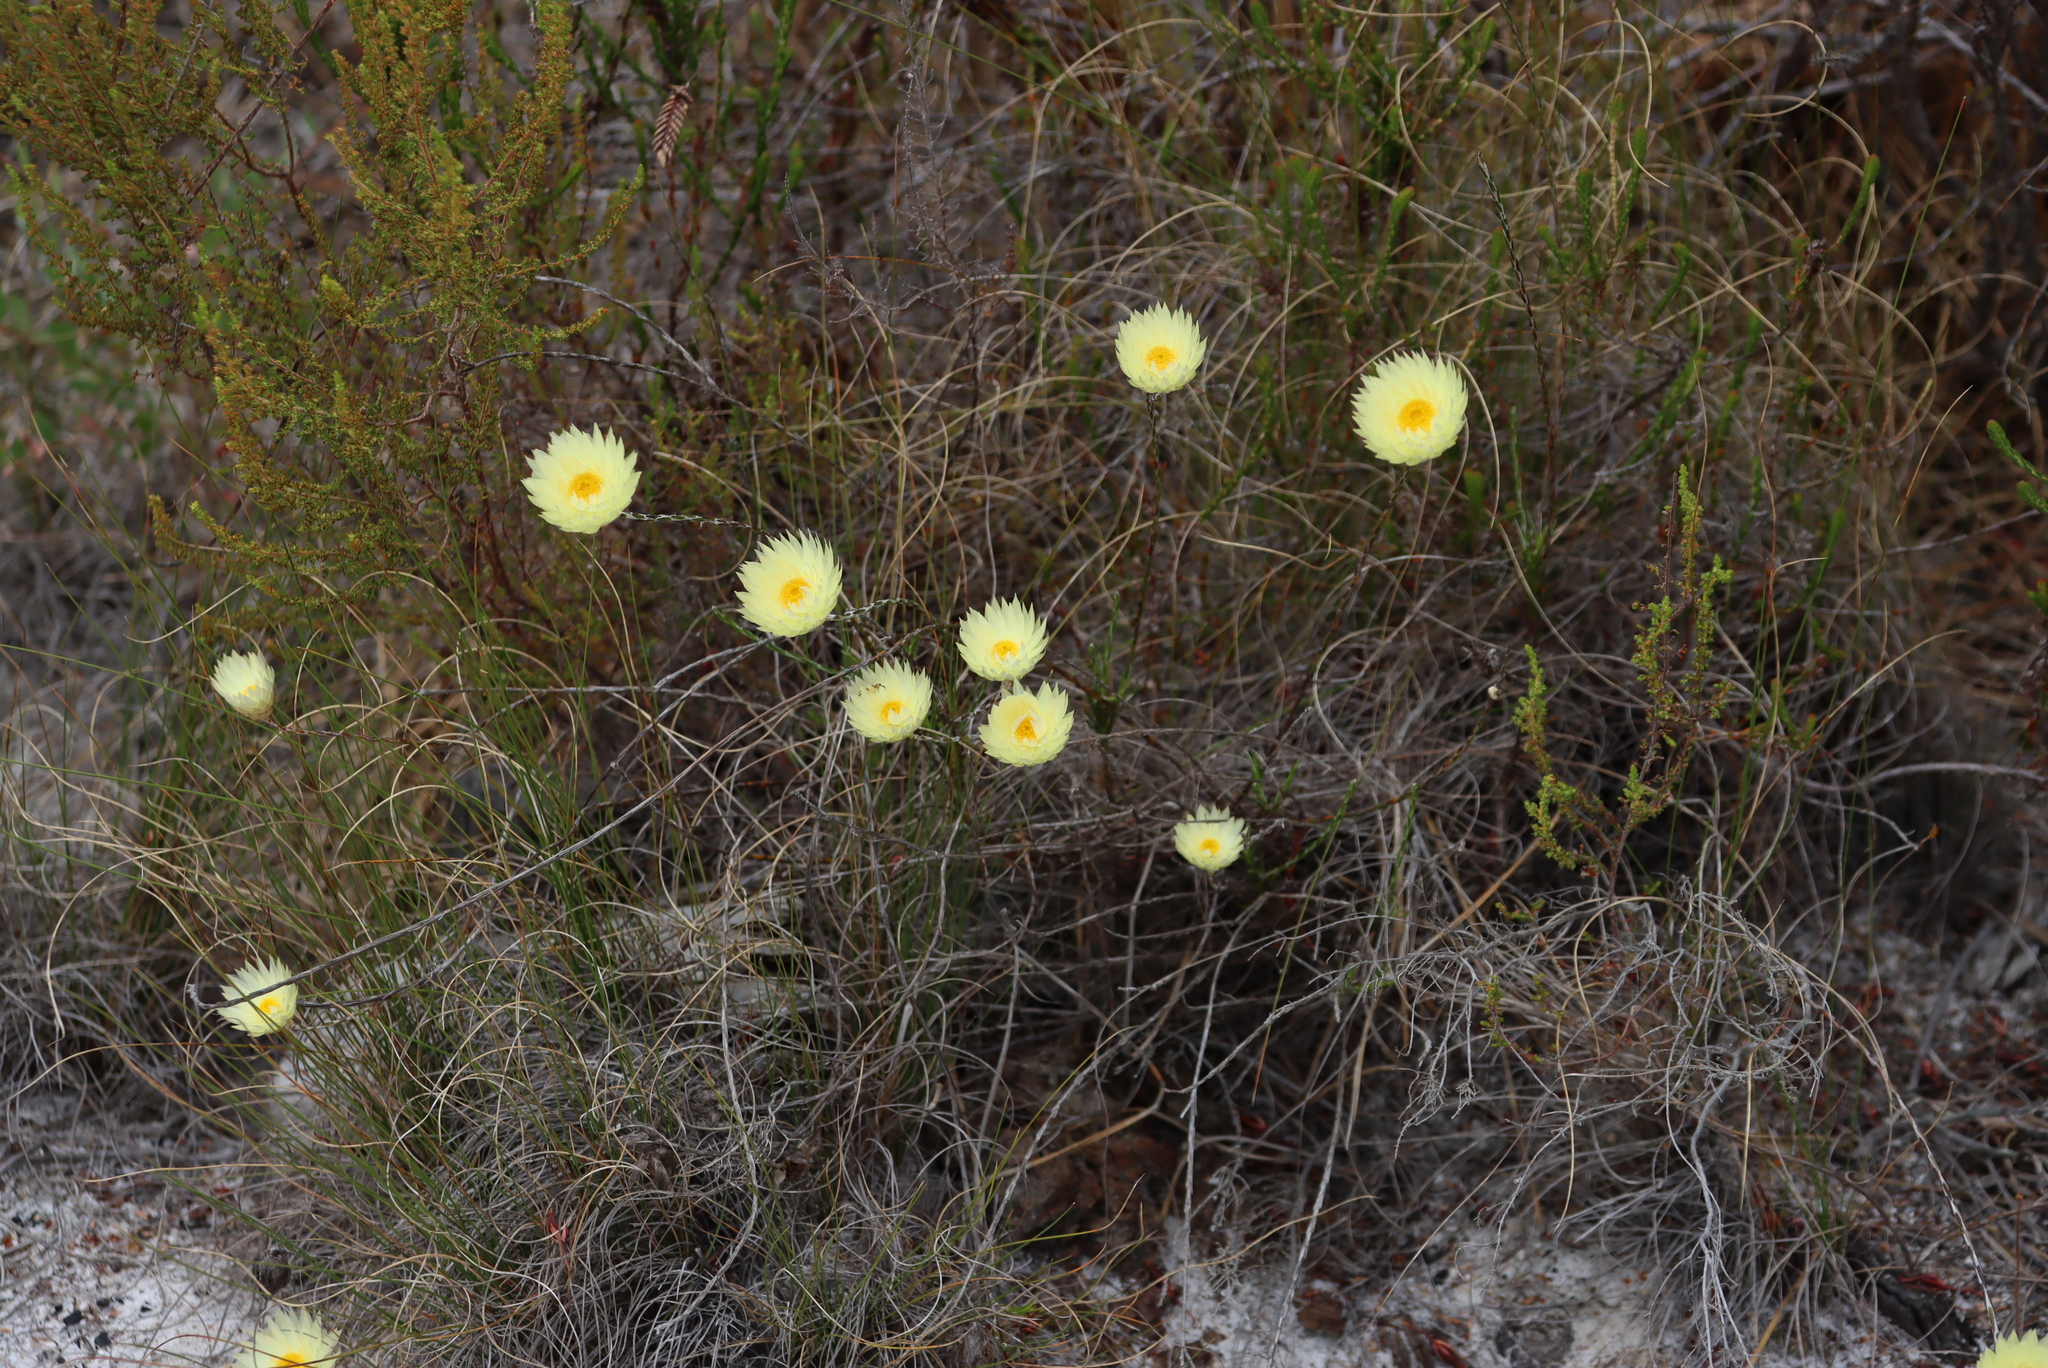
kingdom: Plantae
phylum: Tracheophyta
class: Magnoliopsida
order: Asterales
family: Asteraceae
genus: Edmondia
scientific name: Edmondia sesamoides
